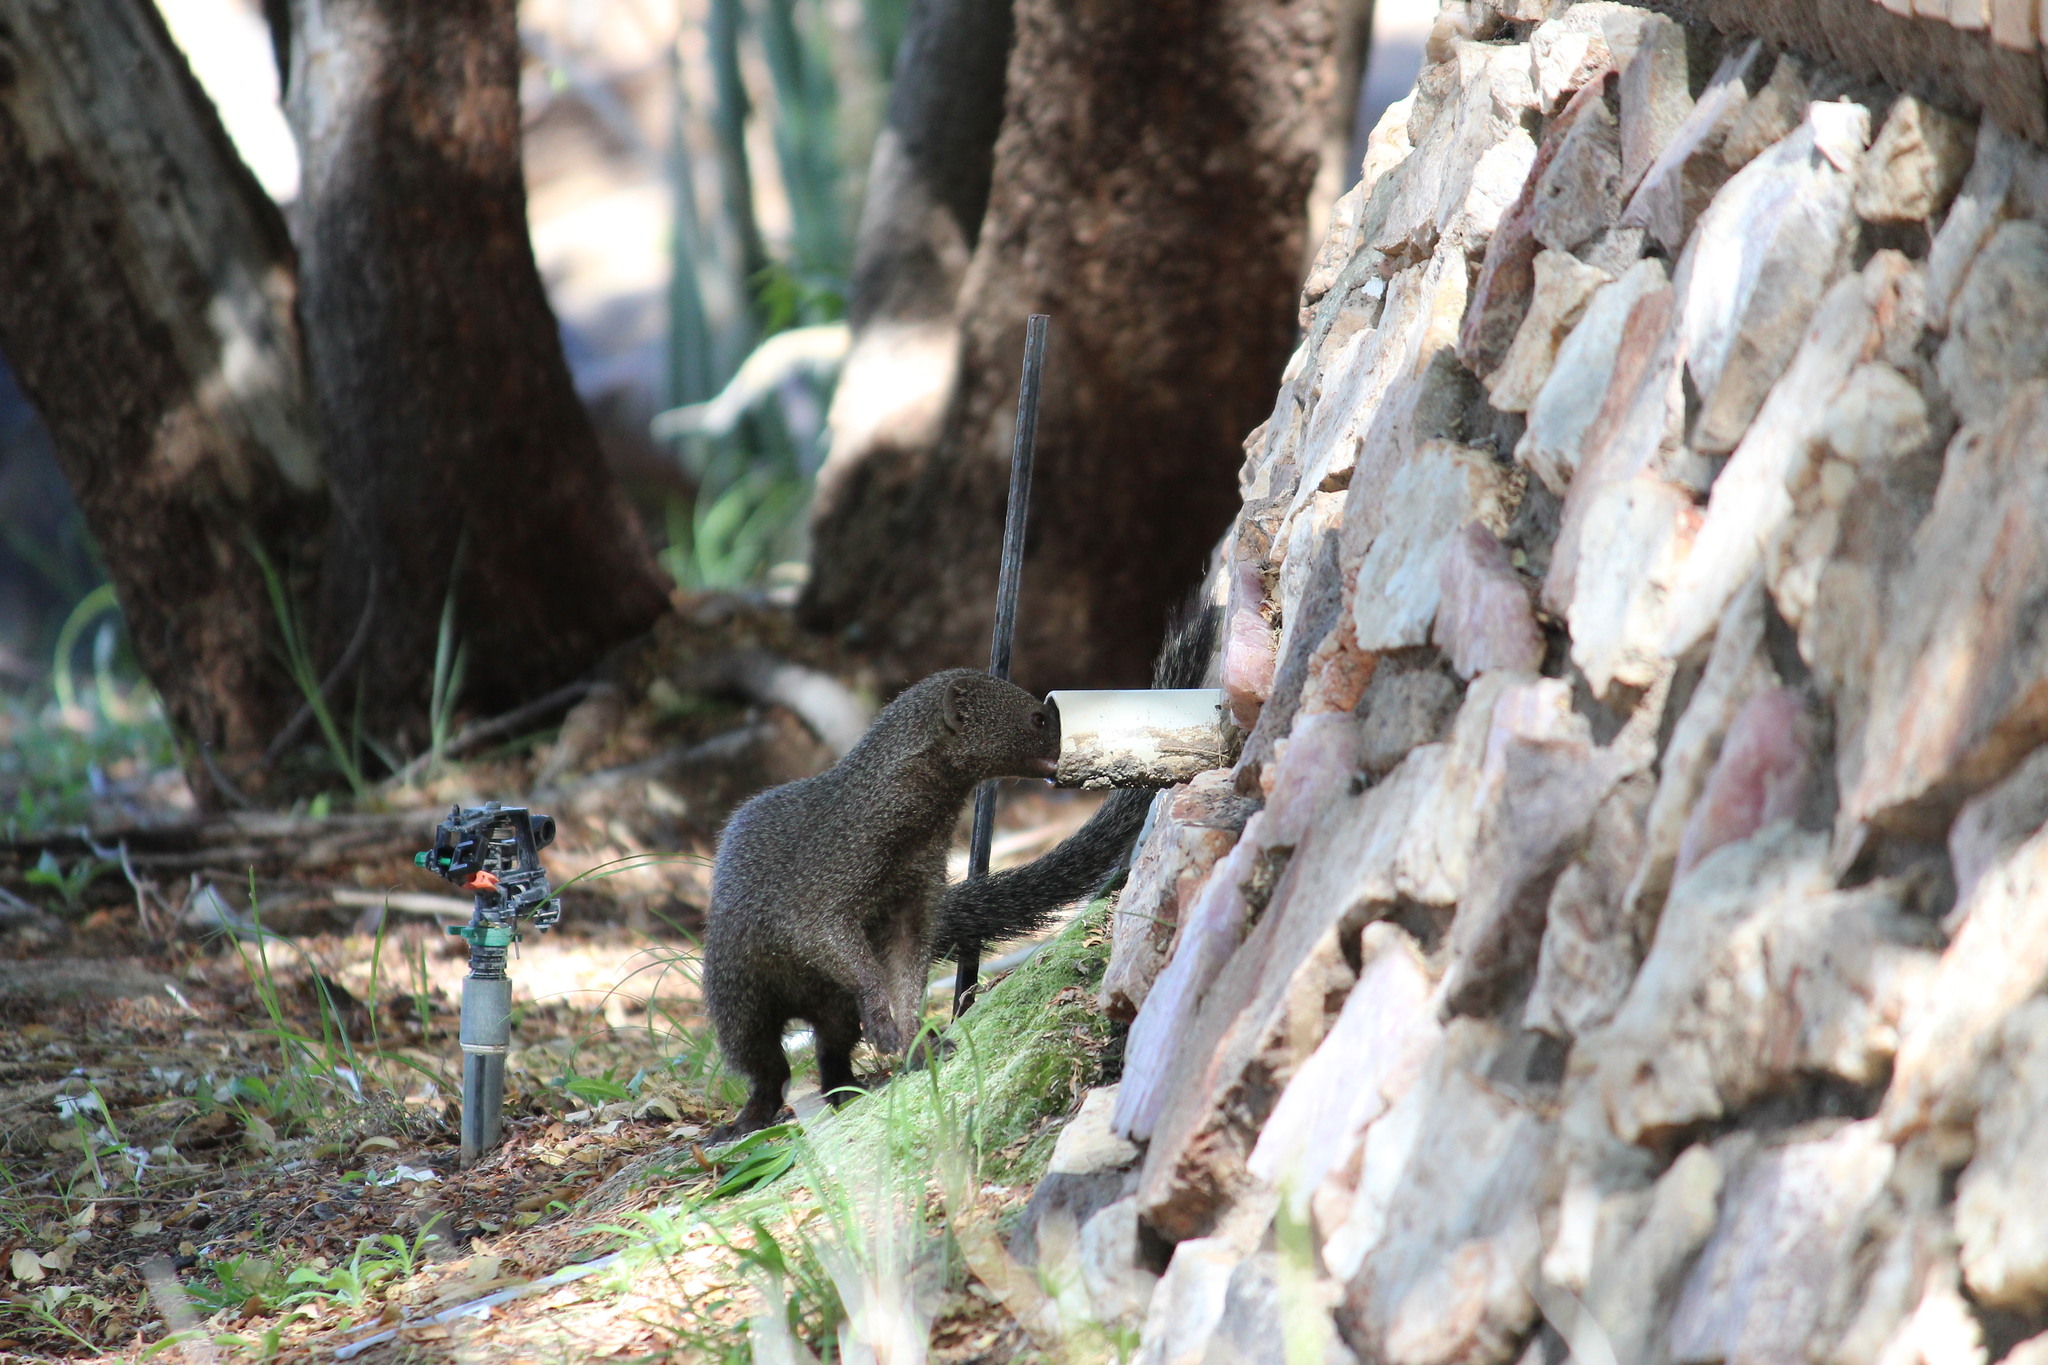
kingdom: Animalia
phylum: Chordata
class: Mammalia
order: Carnivora
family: Herpestidae
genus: Galerella
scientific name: Galerella pulverulenta
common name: Cape gray mongoose
